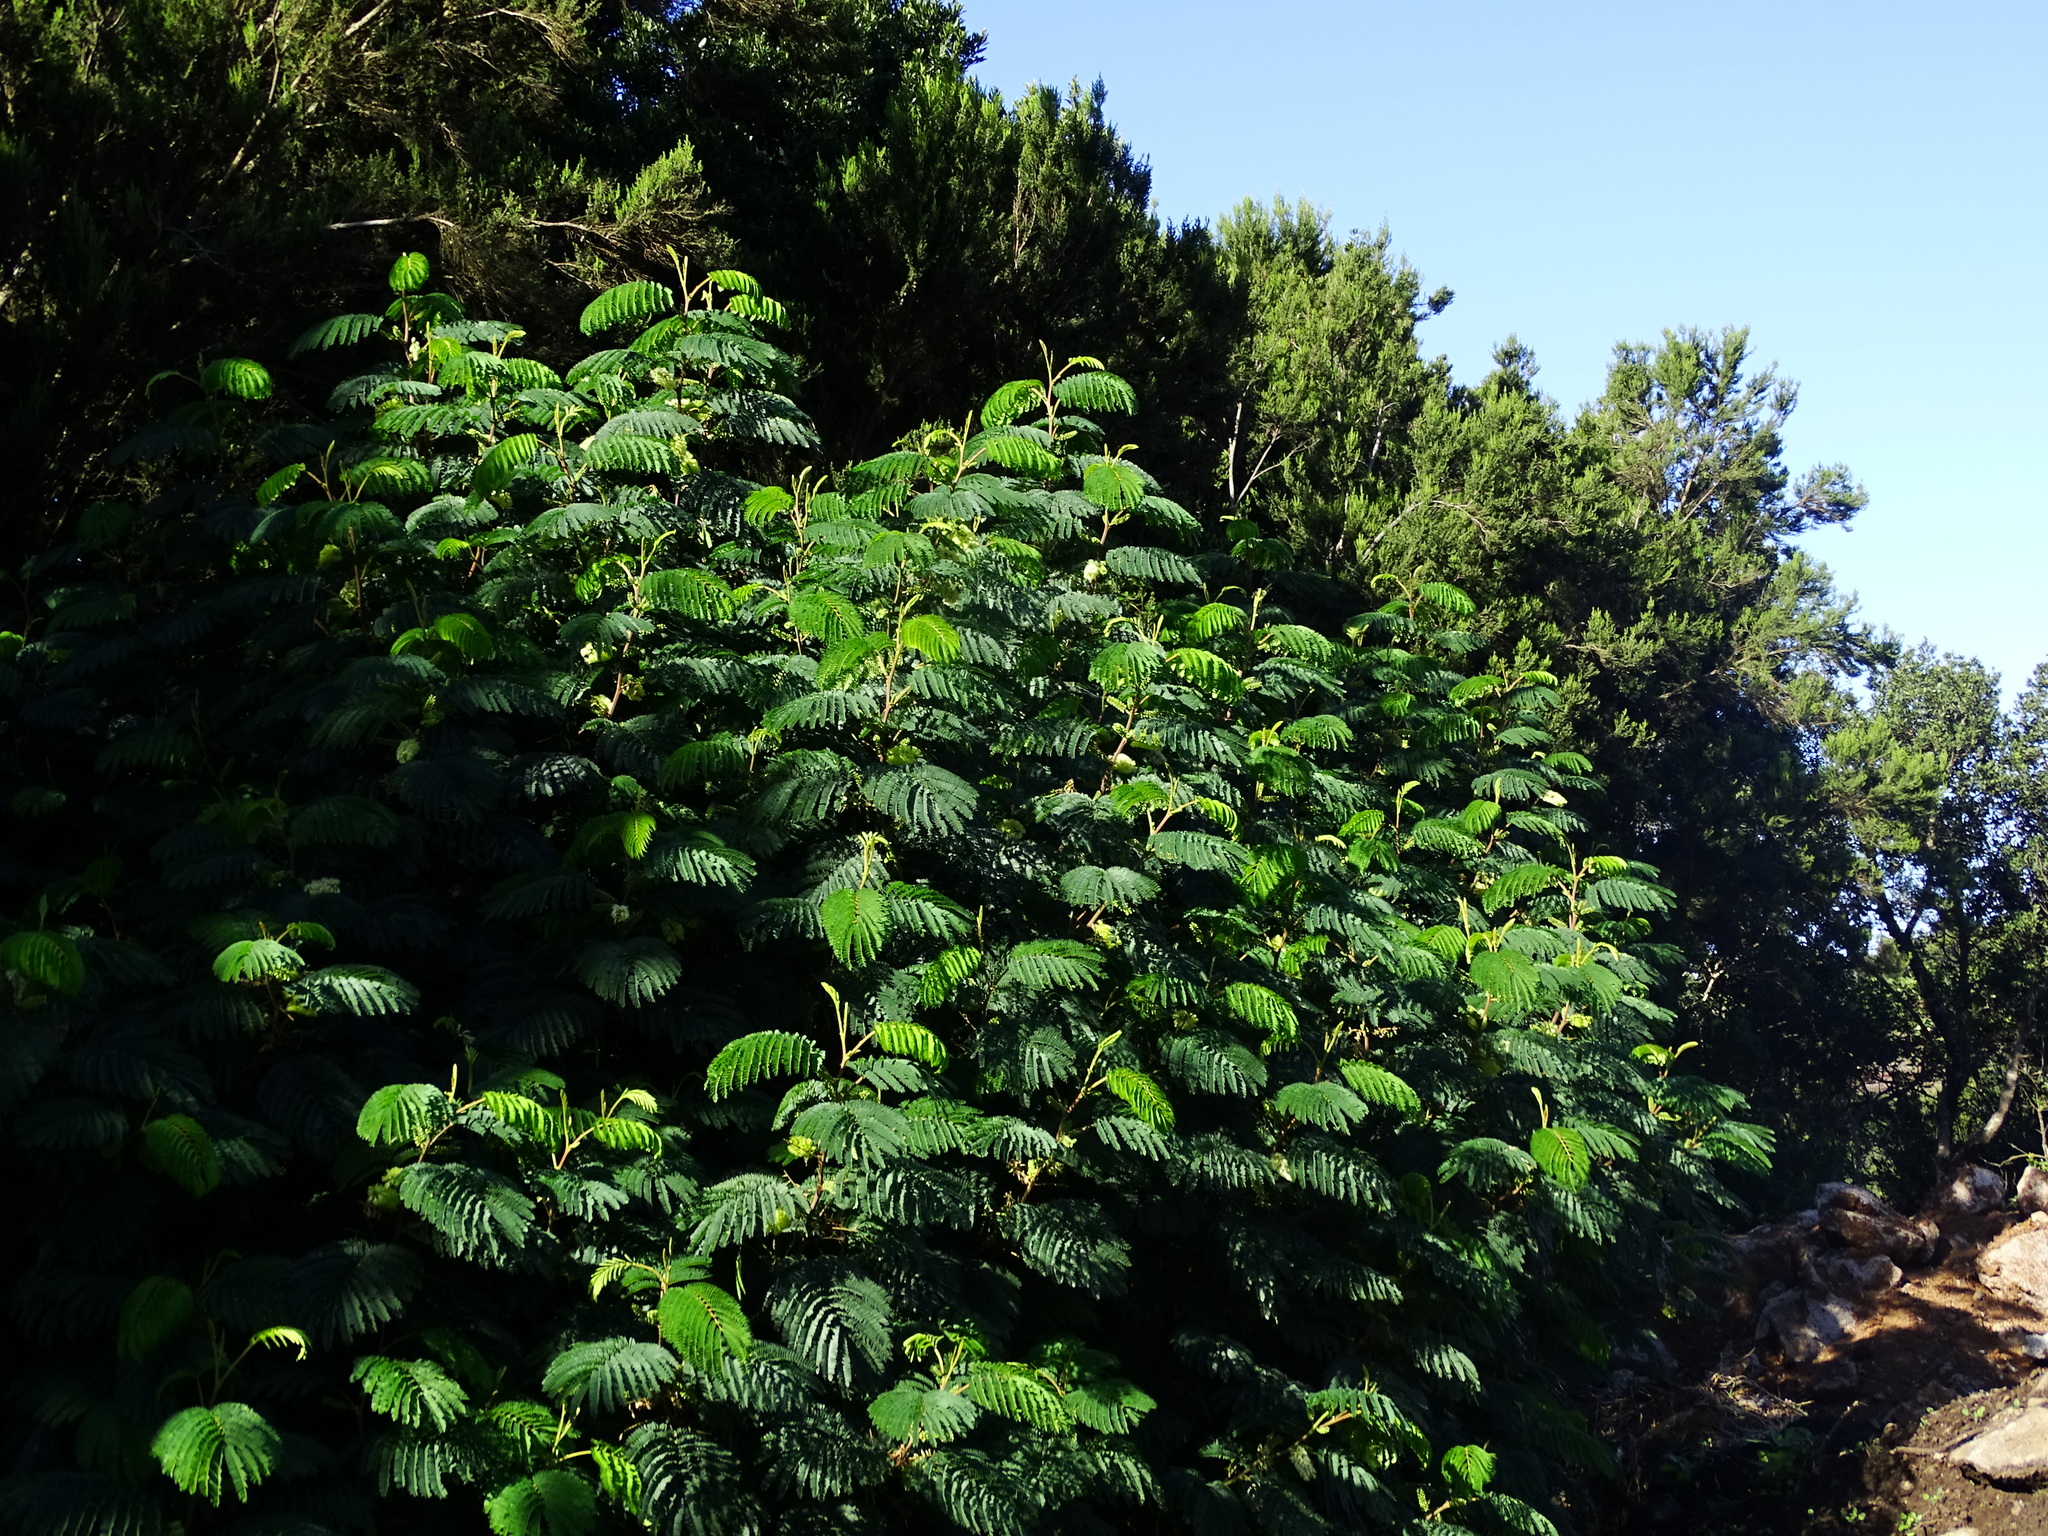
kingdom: Plantae
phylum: Tracheophyta
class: Magnoliopsida
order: Fabales
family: Fabaceae
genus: Paraserianthes
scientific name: Paraserianthes lophantha
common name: Plume albizia
